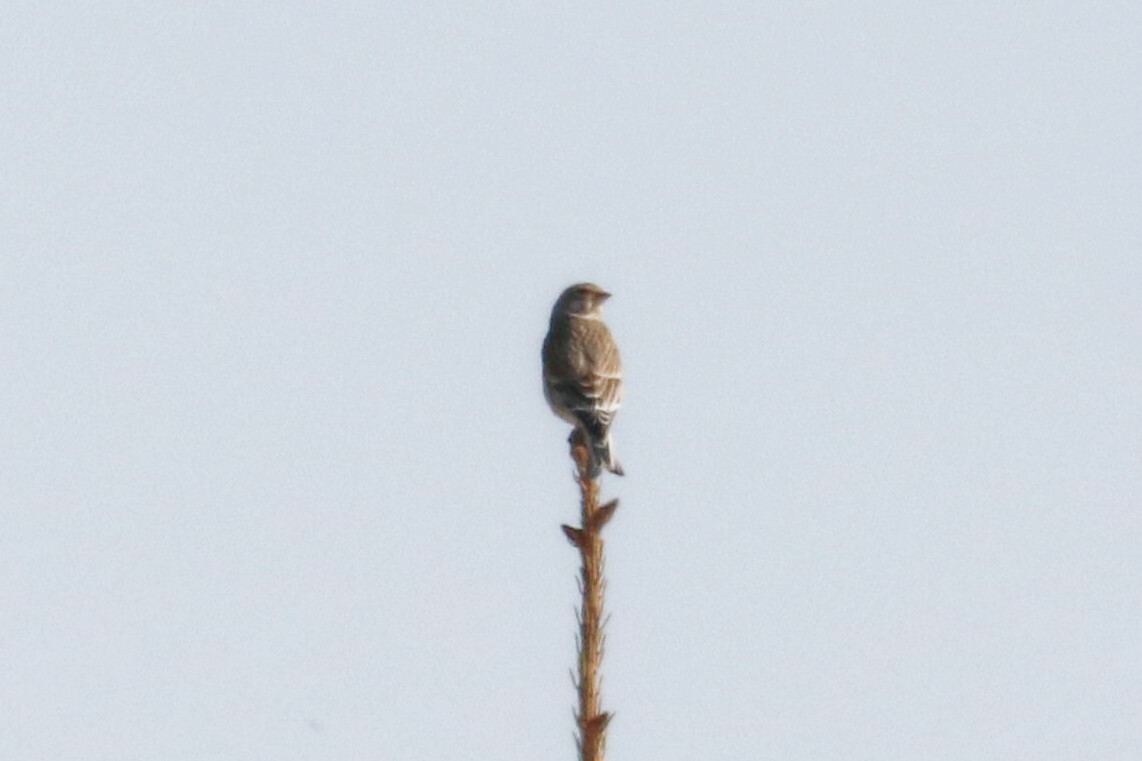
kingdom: Animalia
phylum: Chordata
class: Aves
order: Passeriformes
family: Fringillidae
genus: Linaria
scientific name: Linaria cannabina
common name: Common linnet
